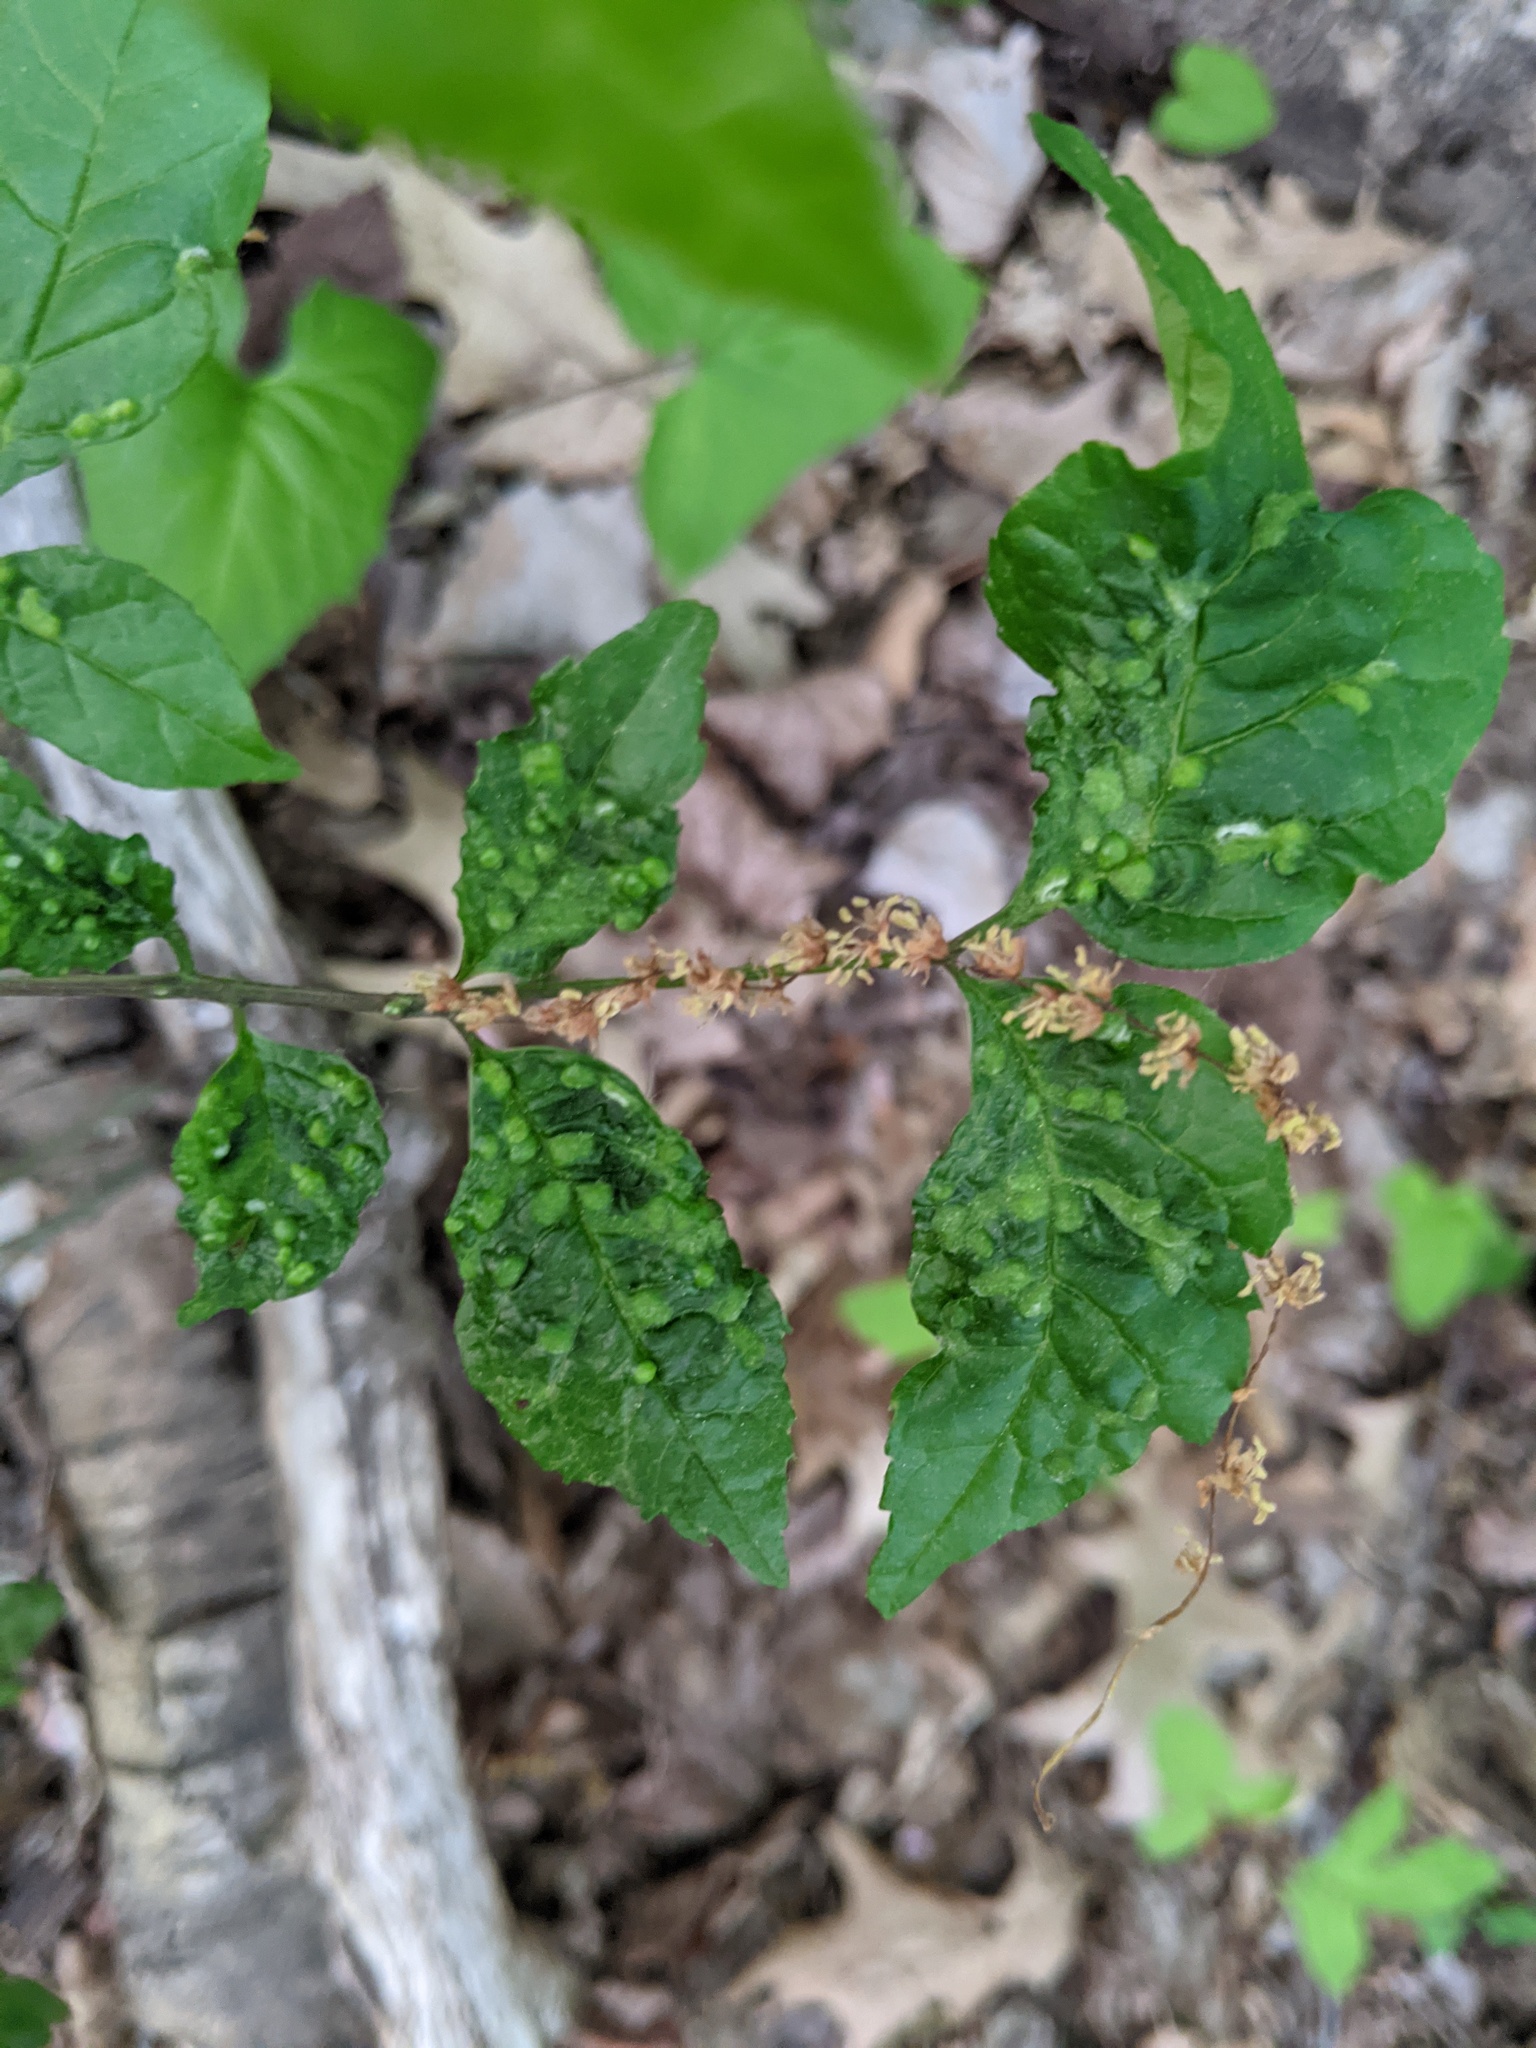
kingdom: Animalia
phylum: Arthropoda
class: Arachnida
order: Trombidiformes
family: Eriophyidae
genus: Aceria
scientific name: Aceria fraxinicola
